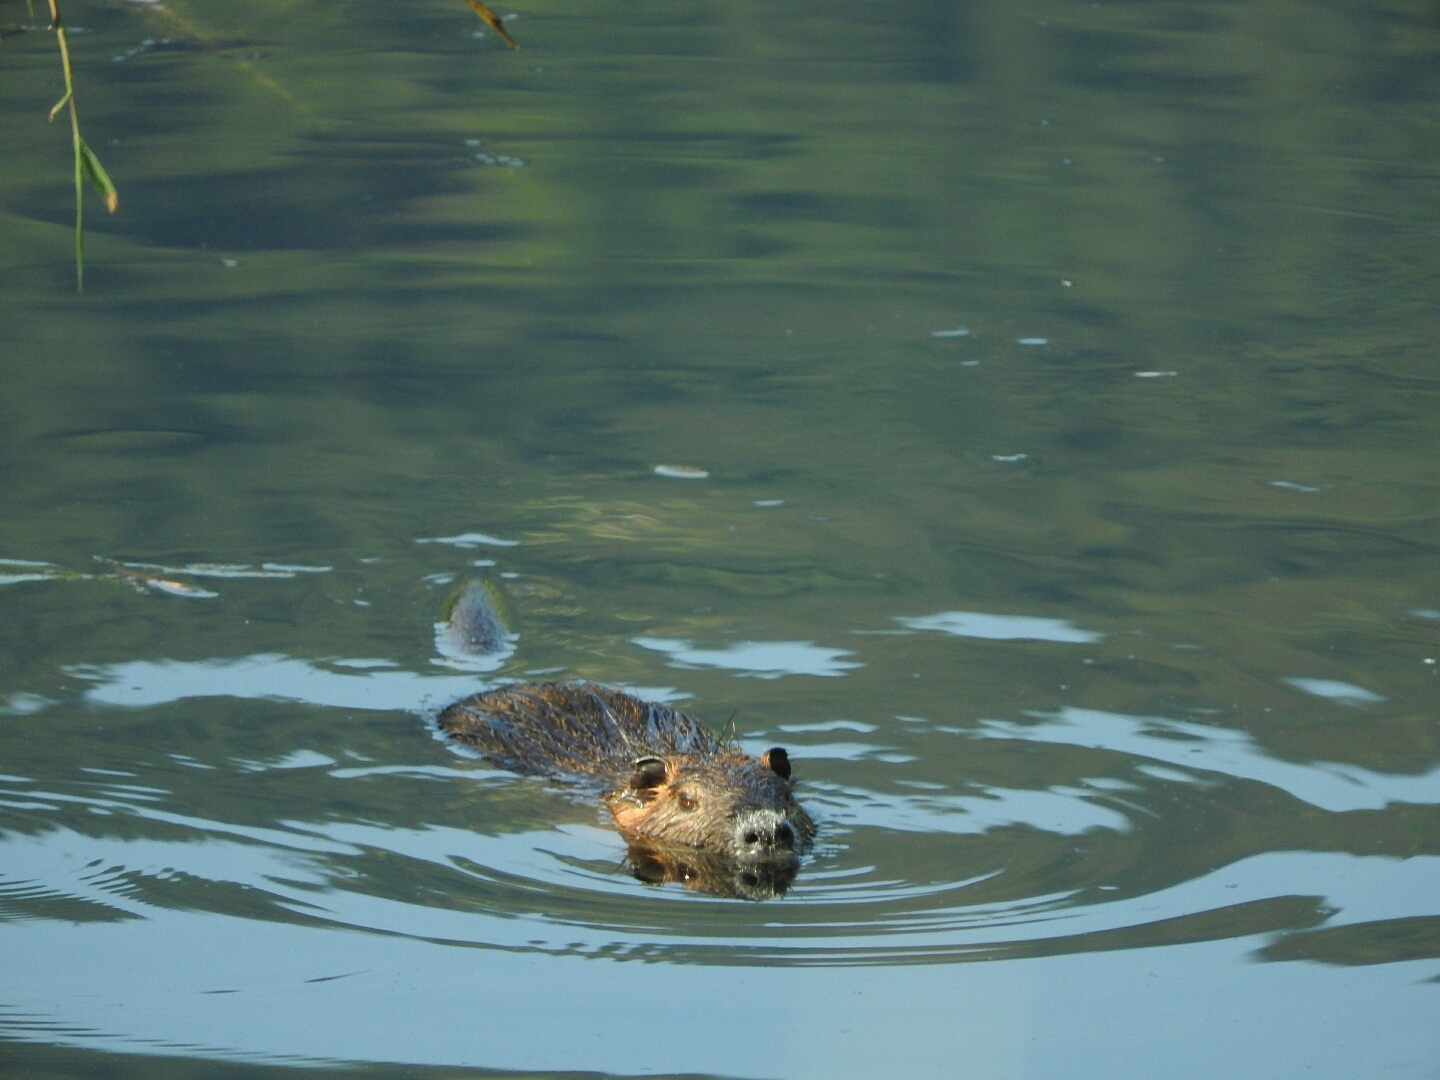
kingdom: Animalia
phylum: Chordata
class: Mammalia
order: Rodentia
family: Myocastoridae
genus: Myocastor
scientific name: Myocastor coypus
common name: Coypu
